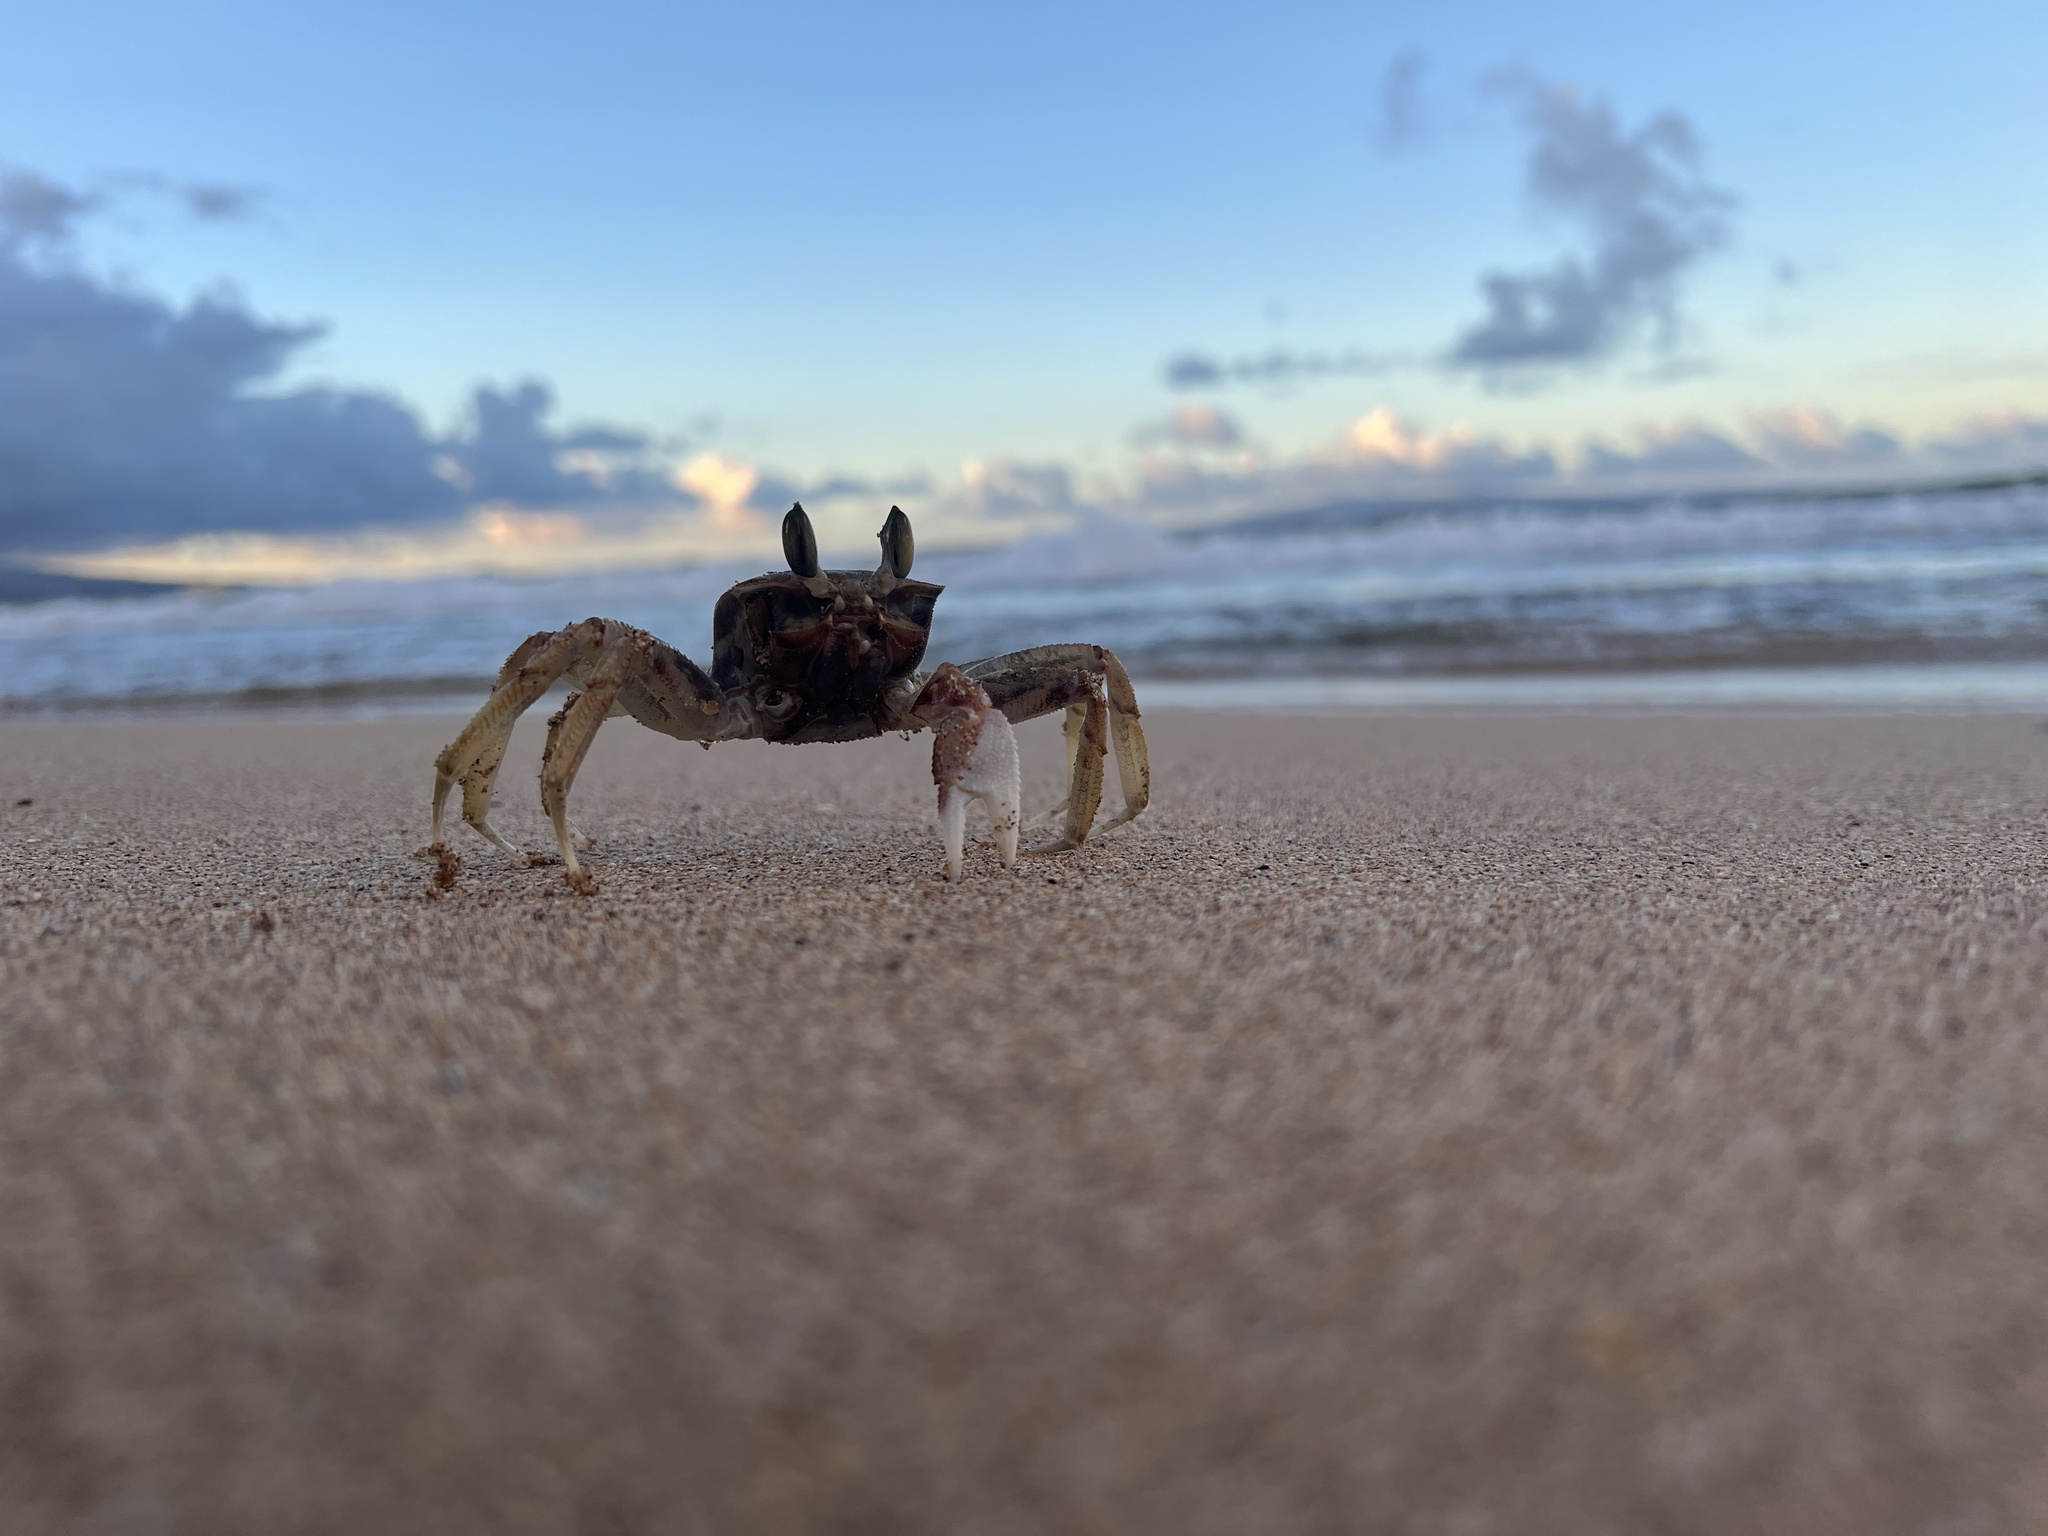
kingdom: Animalia
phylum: Arthropoda
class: Malacostraca
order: Decapoda
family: Ocypodidae
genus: Ocypode
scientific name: Ocypode pallidula
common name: Pallid ghost crab
